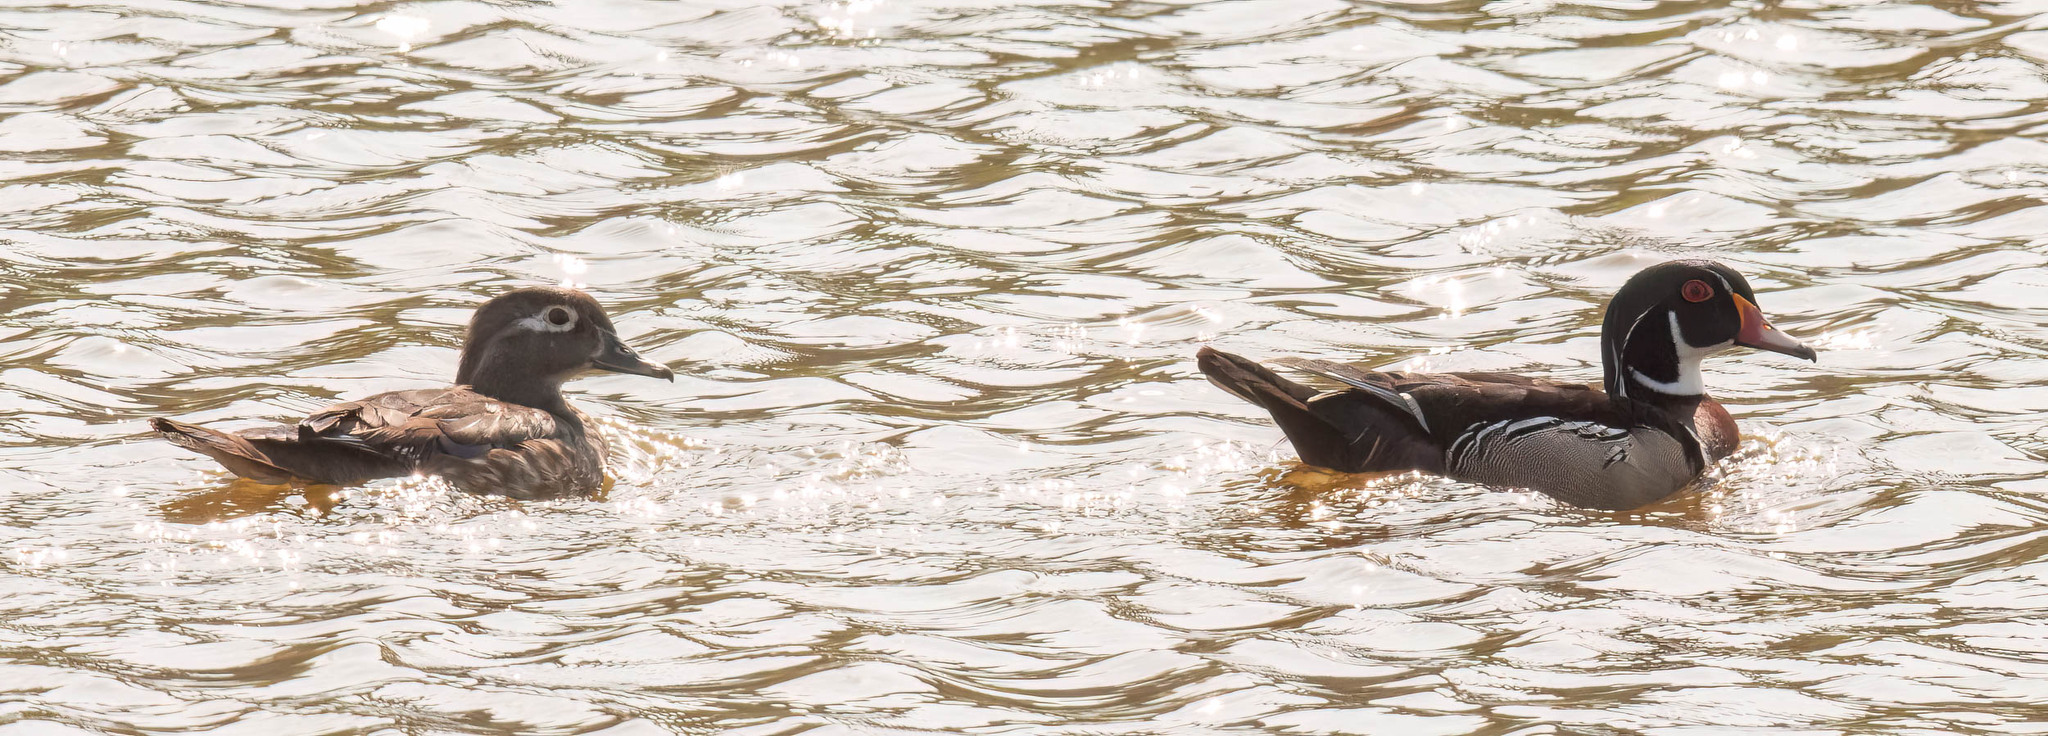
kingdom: Animalia
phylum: Chordata
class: Aves
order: Anseriformes
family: Anatidae
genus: Aix
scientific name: Aix sponsa
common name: Wood duck
